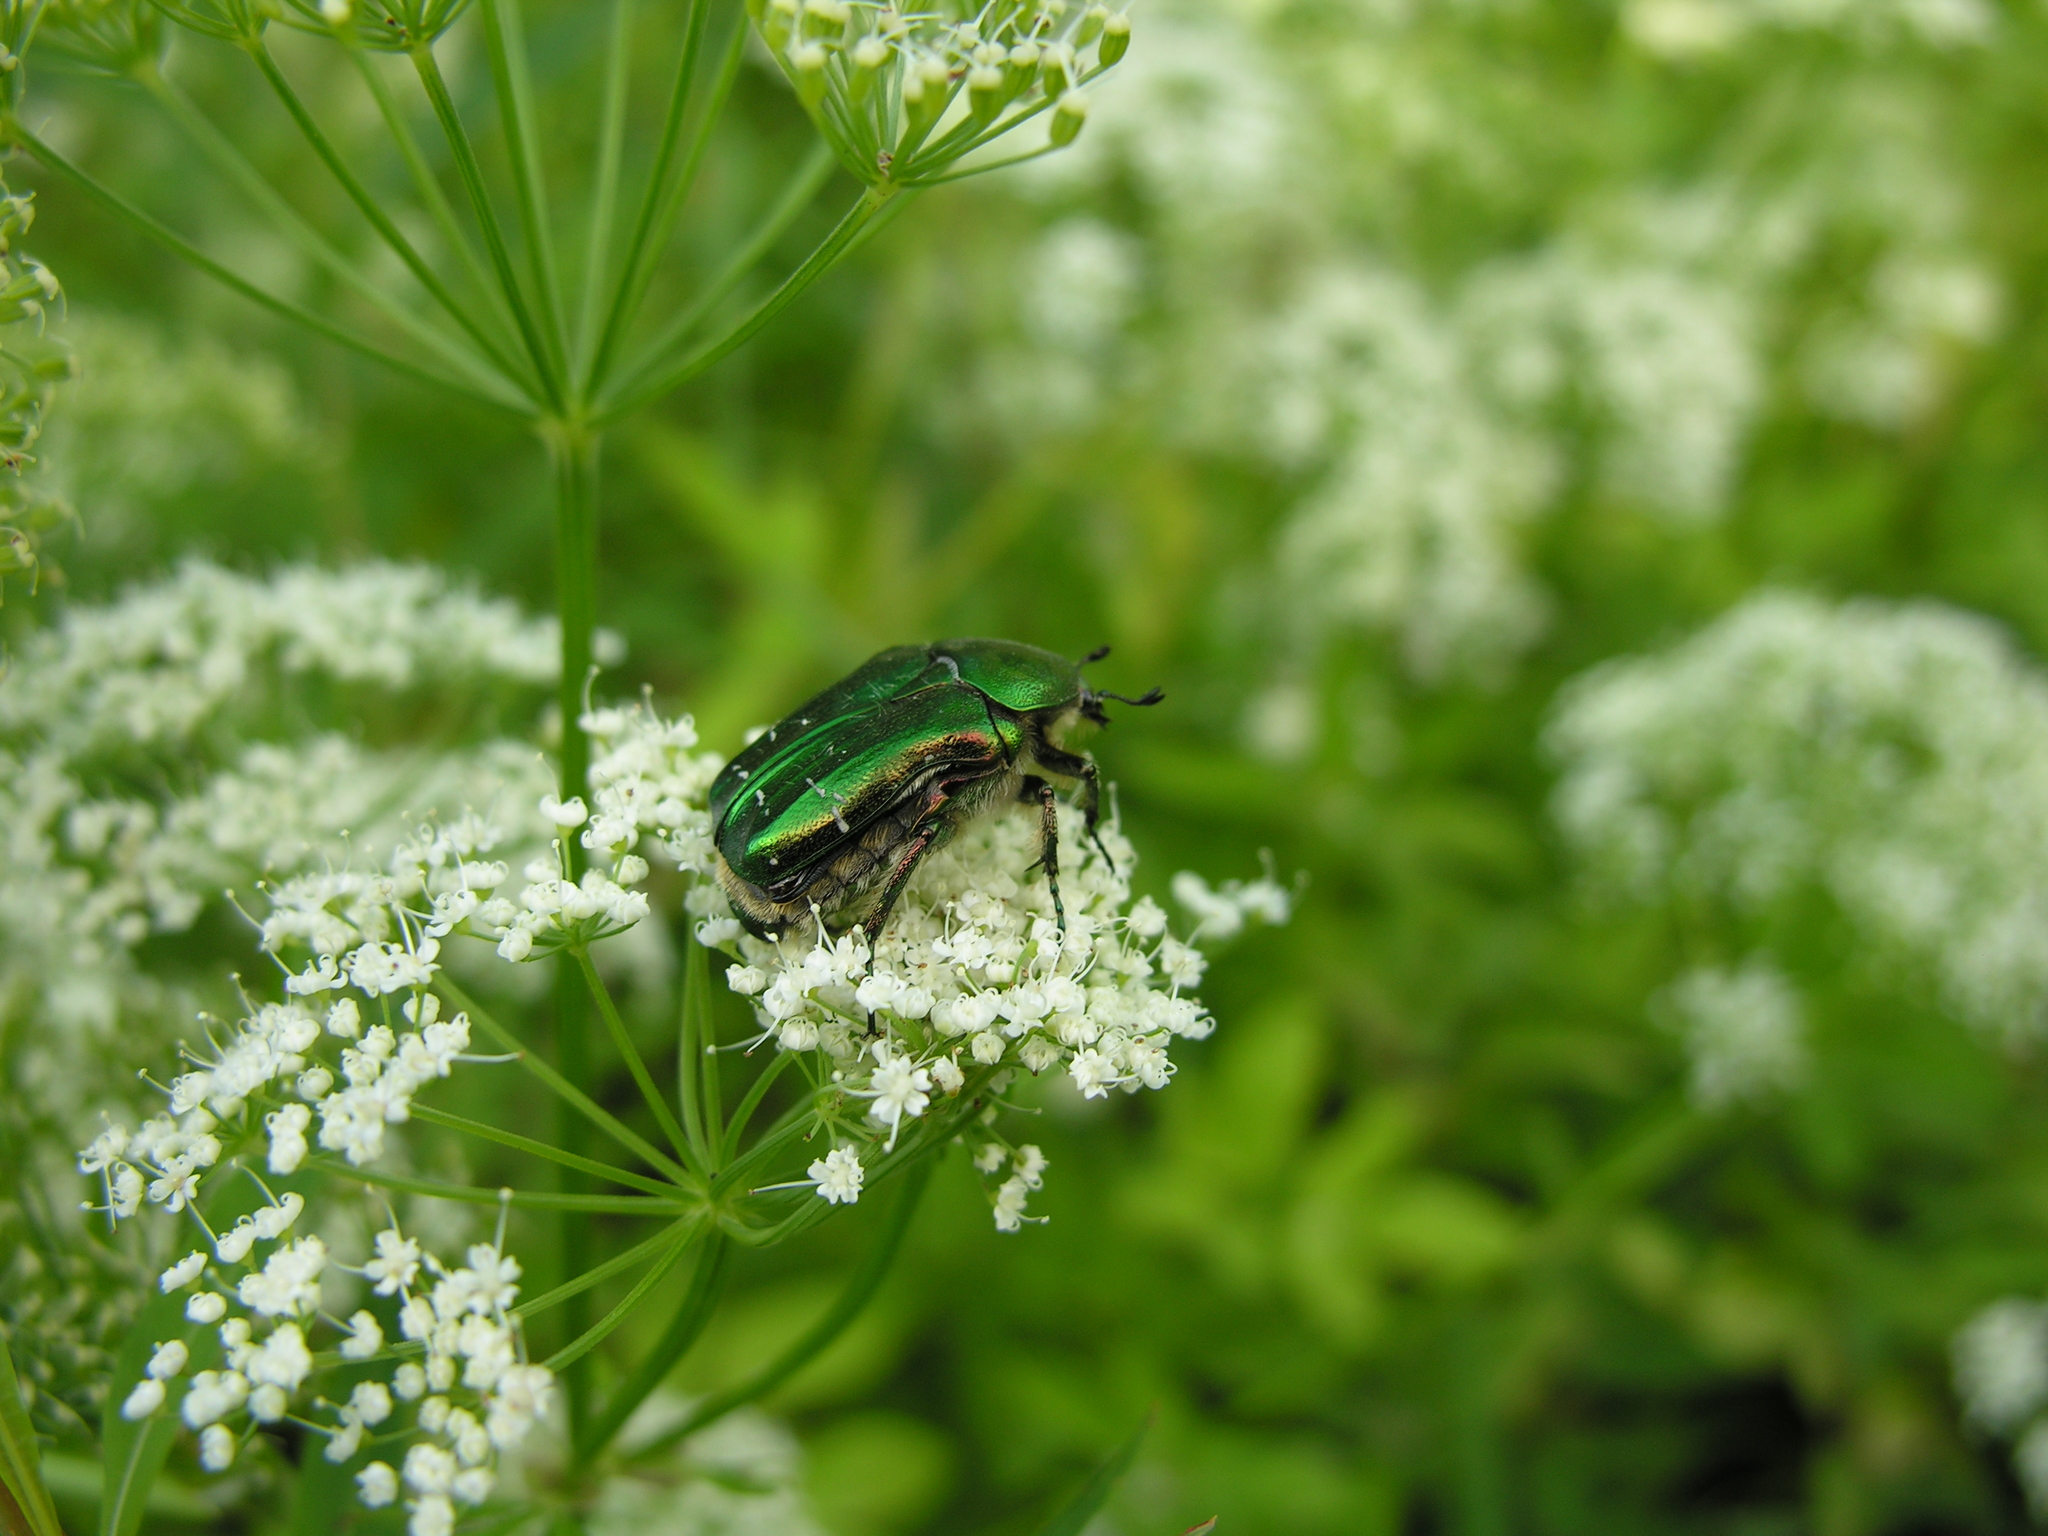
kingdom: Animalia
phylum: Arthropoda
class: Insecta
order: Coleoptera
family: Scarabaeidae
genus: Cetonia
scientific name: Cetonia aurata
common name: Rose chafer
